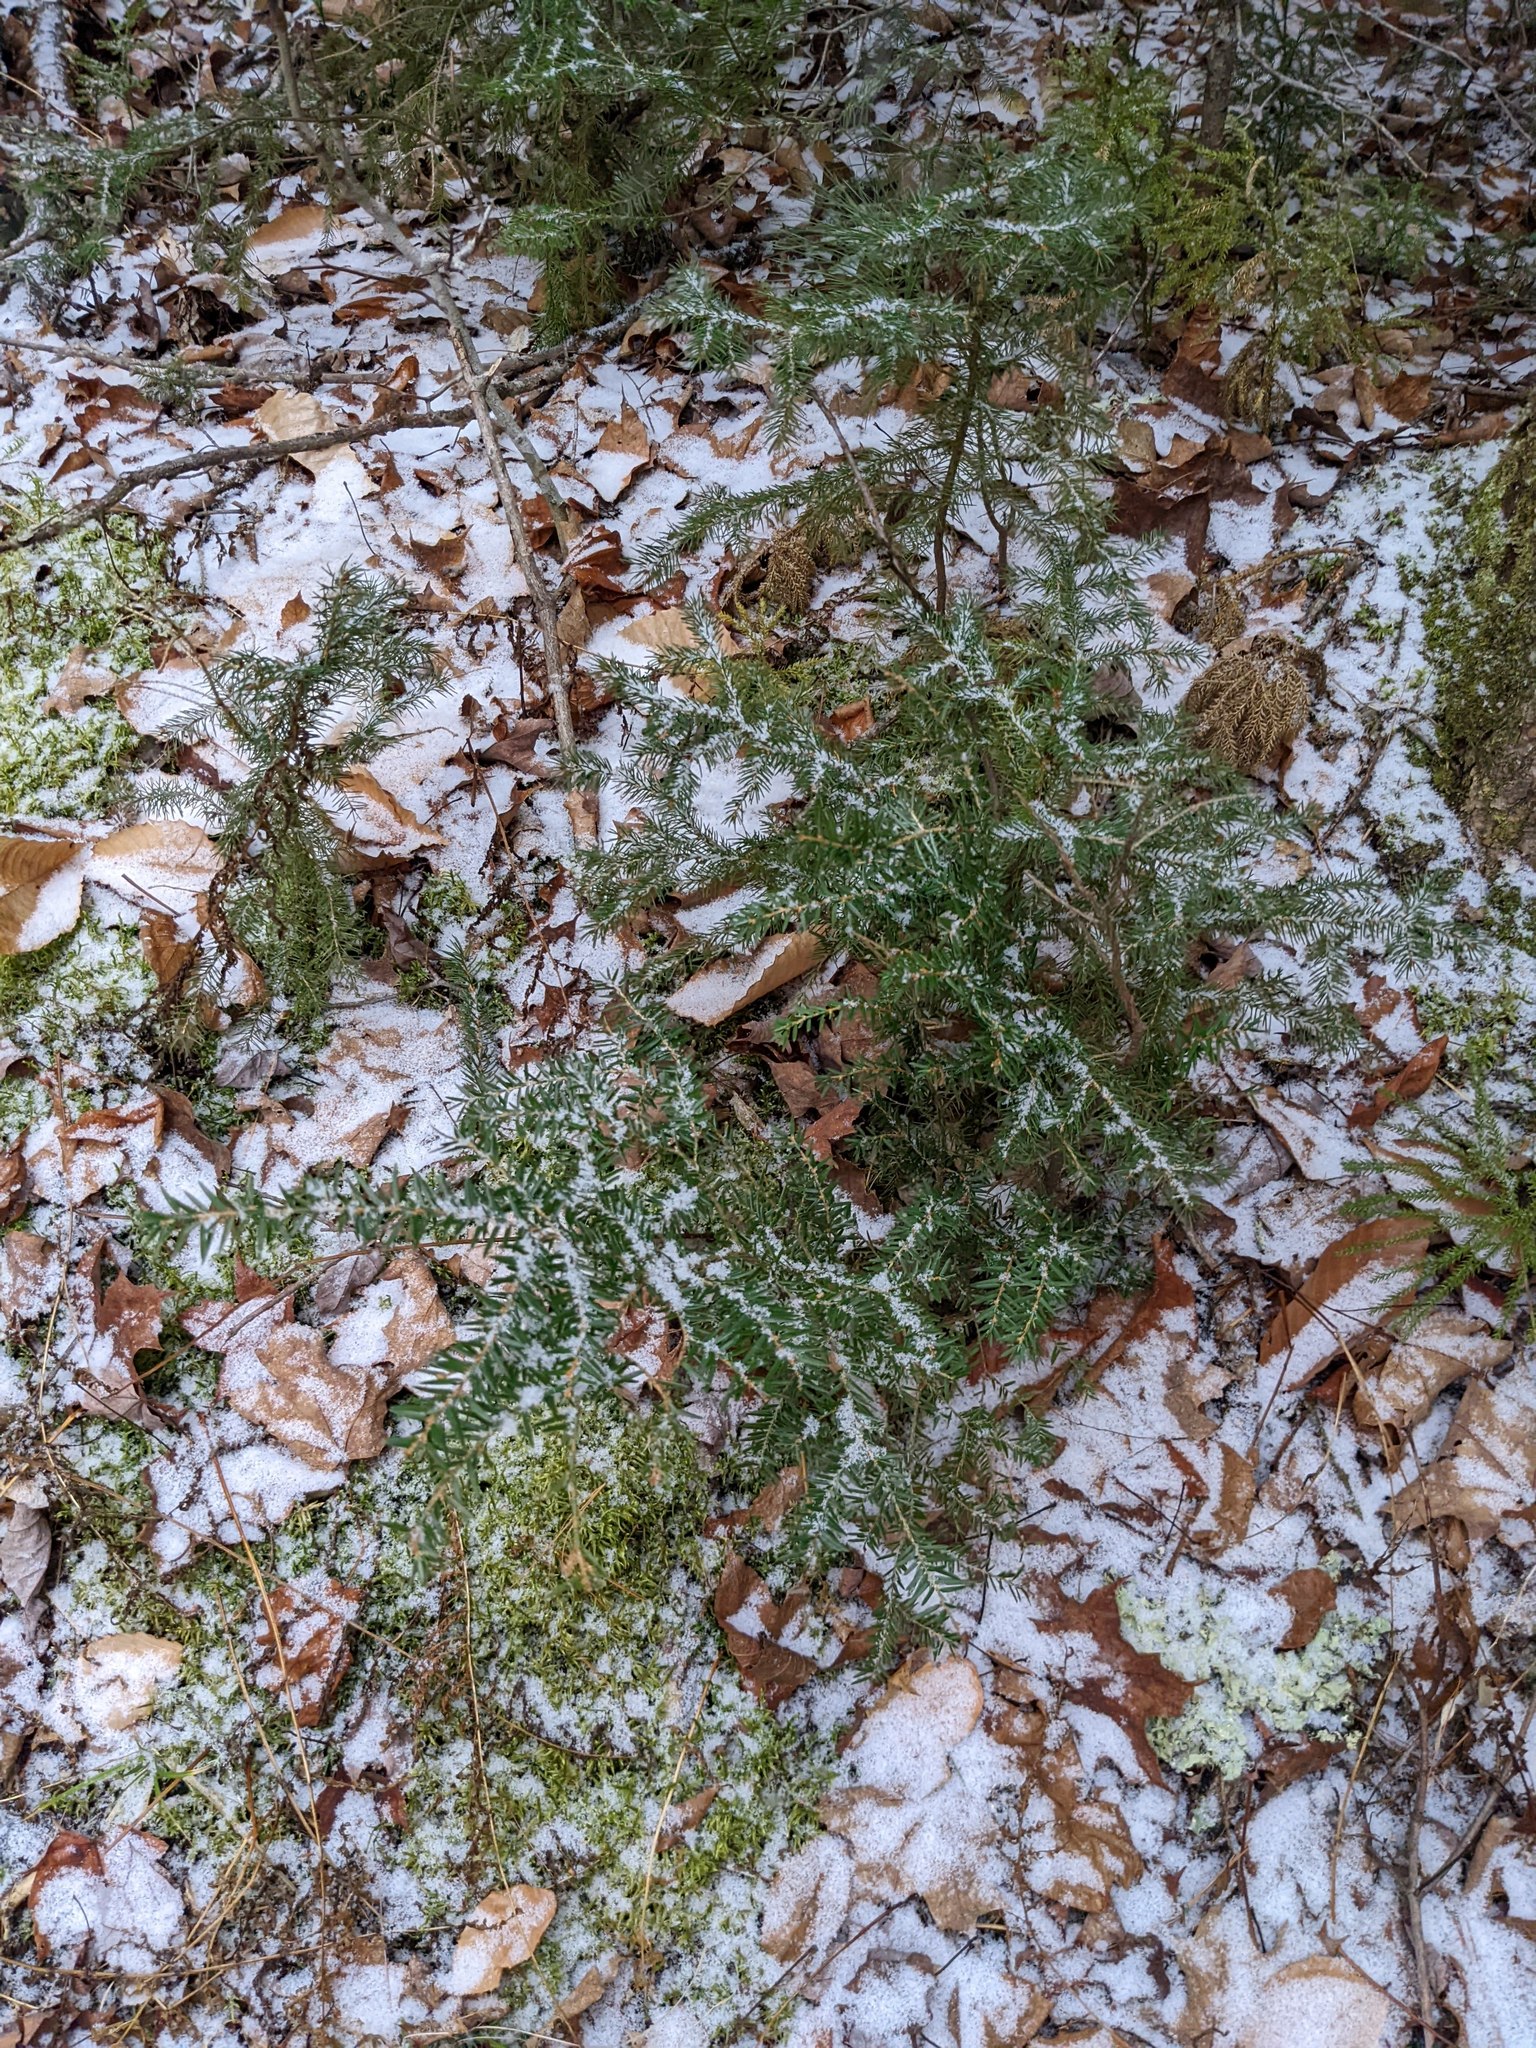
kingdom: Plantae
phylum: Tracheophyta
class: Pinopsida
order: Pinales
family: Pinaceae
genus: Tsuga
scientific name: Tsuga canadensis
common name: Eastern hemlock
